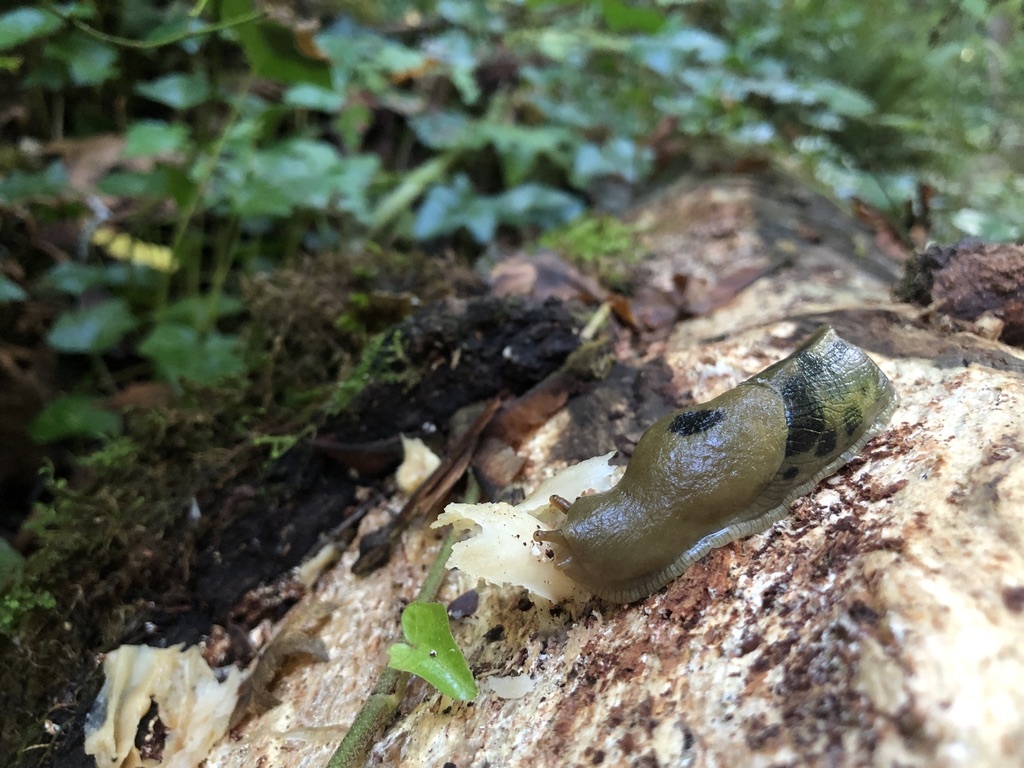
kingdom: Animalia
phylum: Mollusca
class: Gastropoda
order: Stylommatophora
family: Ariolimacidae
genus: Ariolimax
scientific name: Ariolimax columbianus
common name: Pacific banana slug
